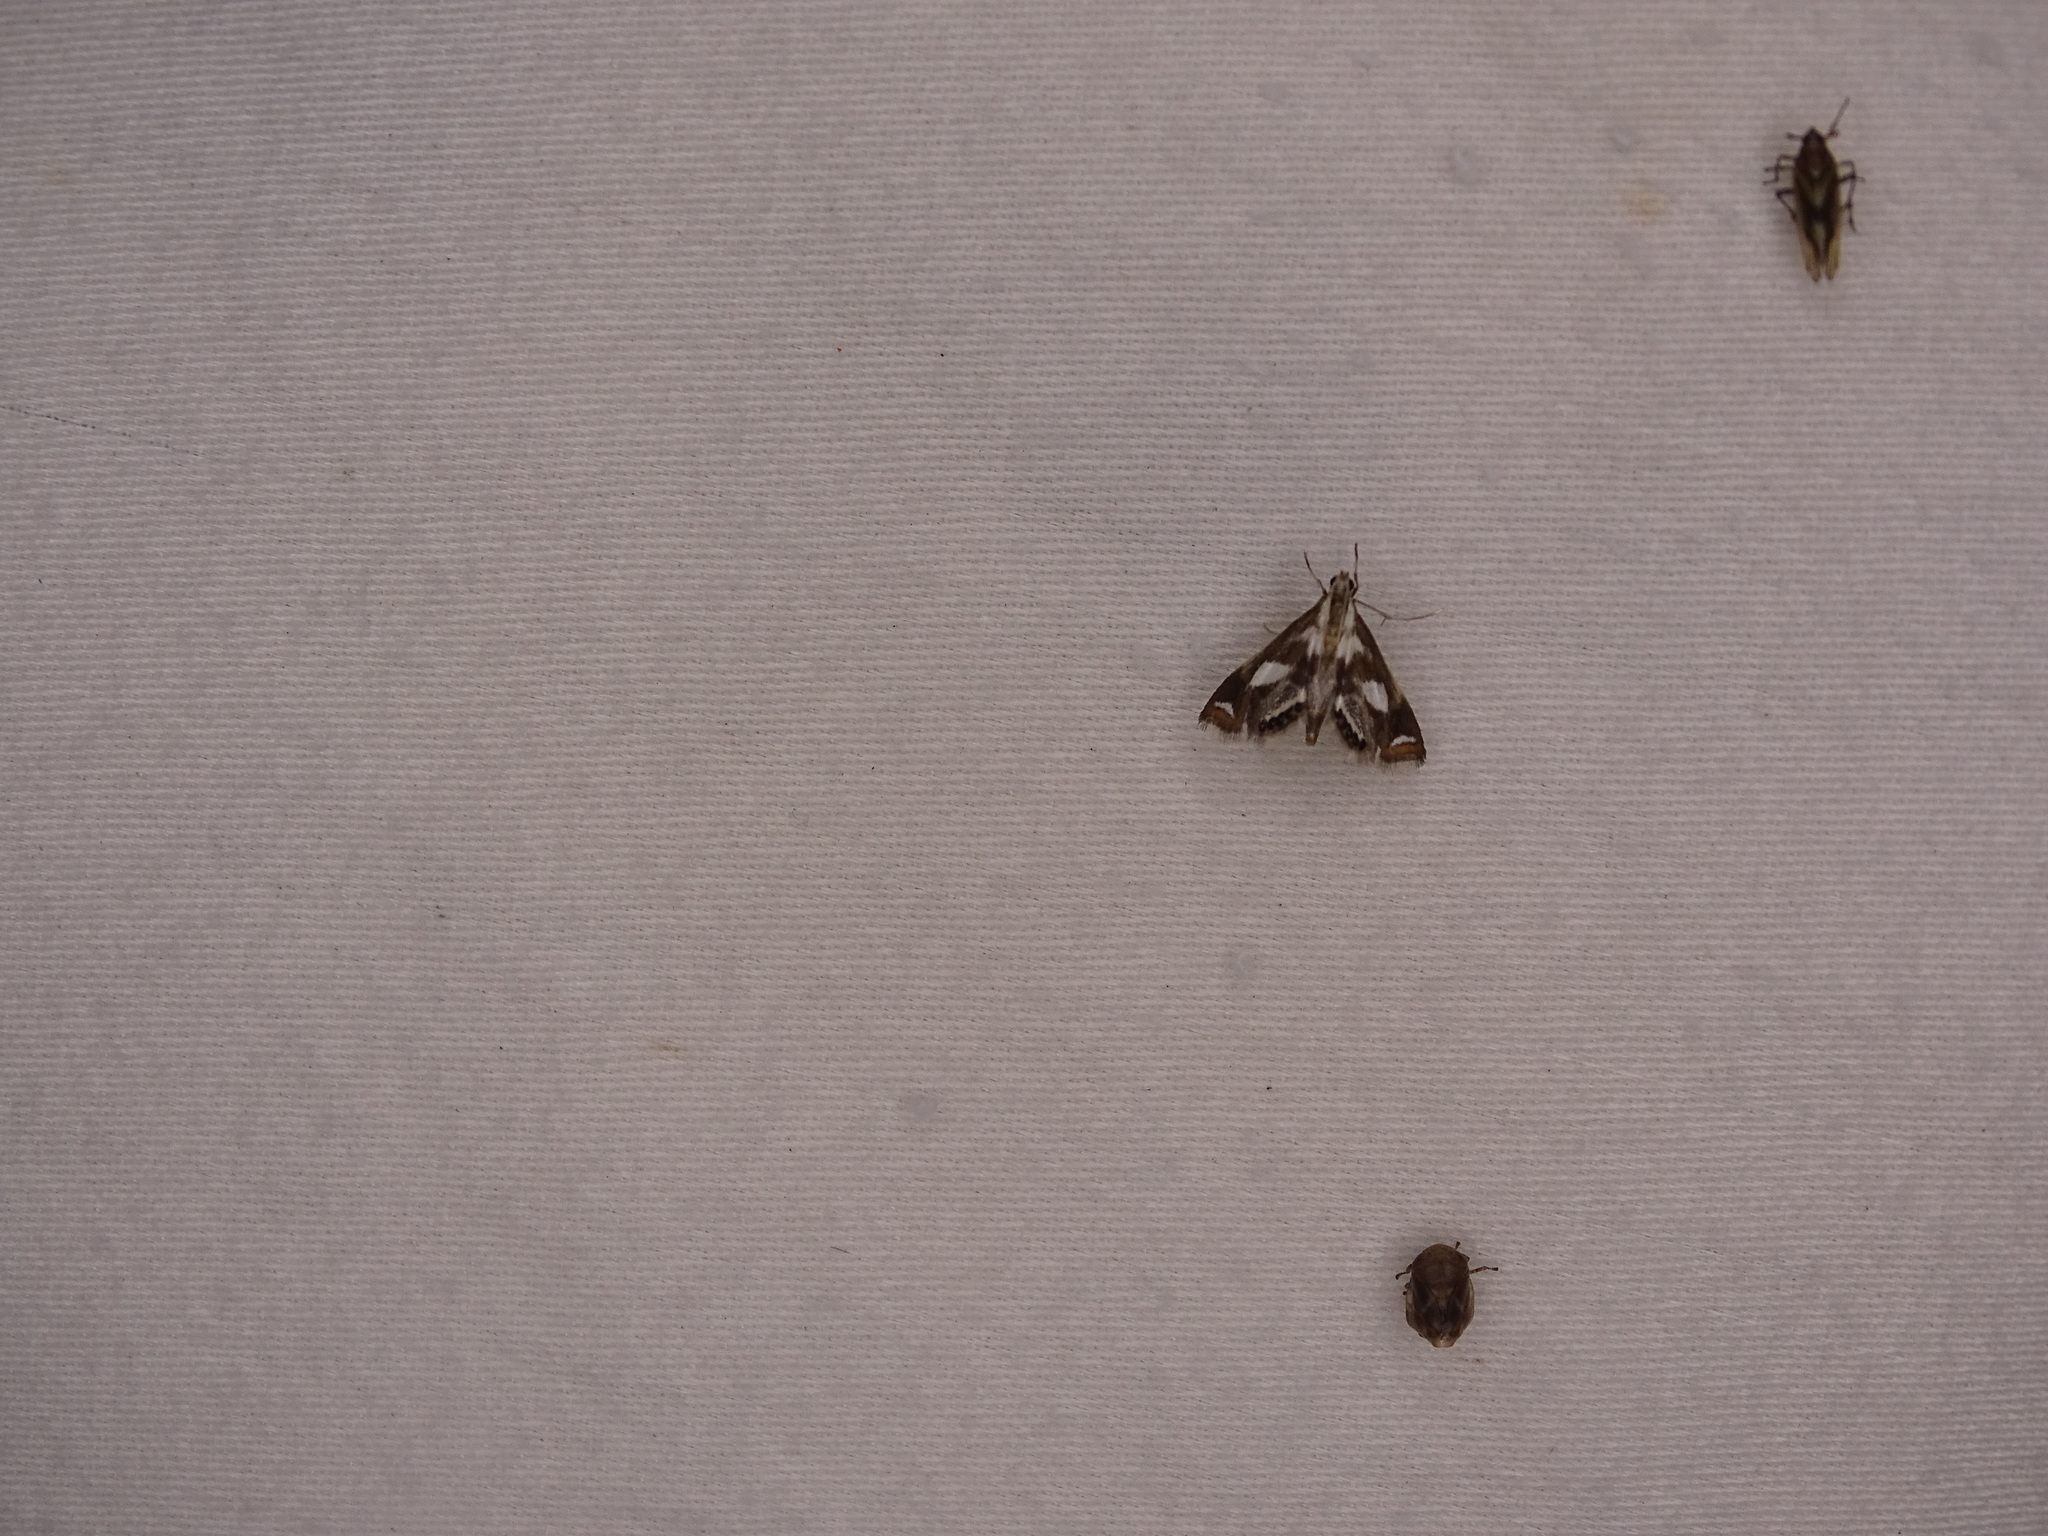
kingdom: Animalia
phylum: Arthropoda
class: Insecta
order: Lepidoptera
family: Crambidae
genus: Chrysendeton
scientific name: Chrysendeton imitabilis
